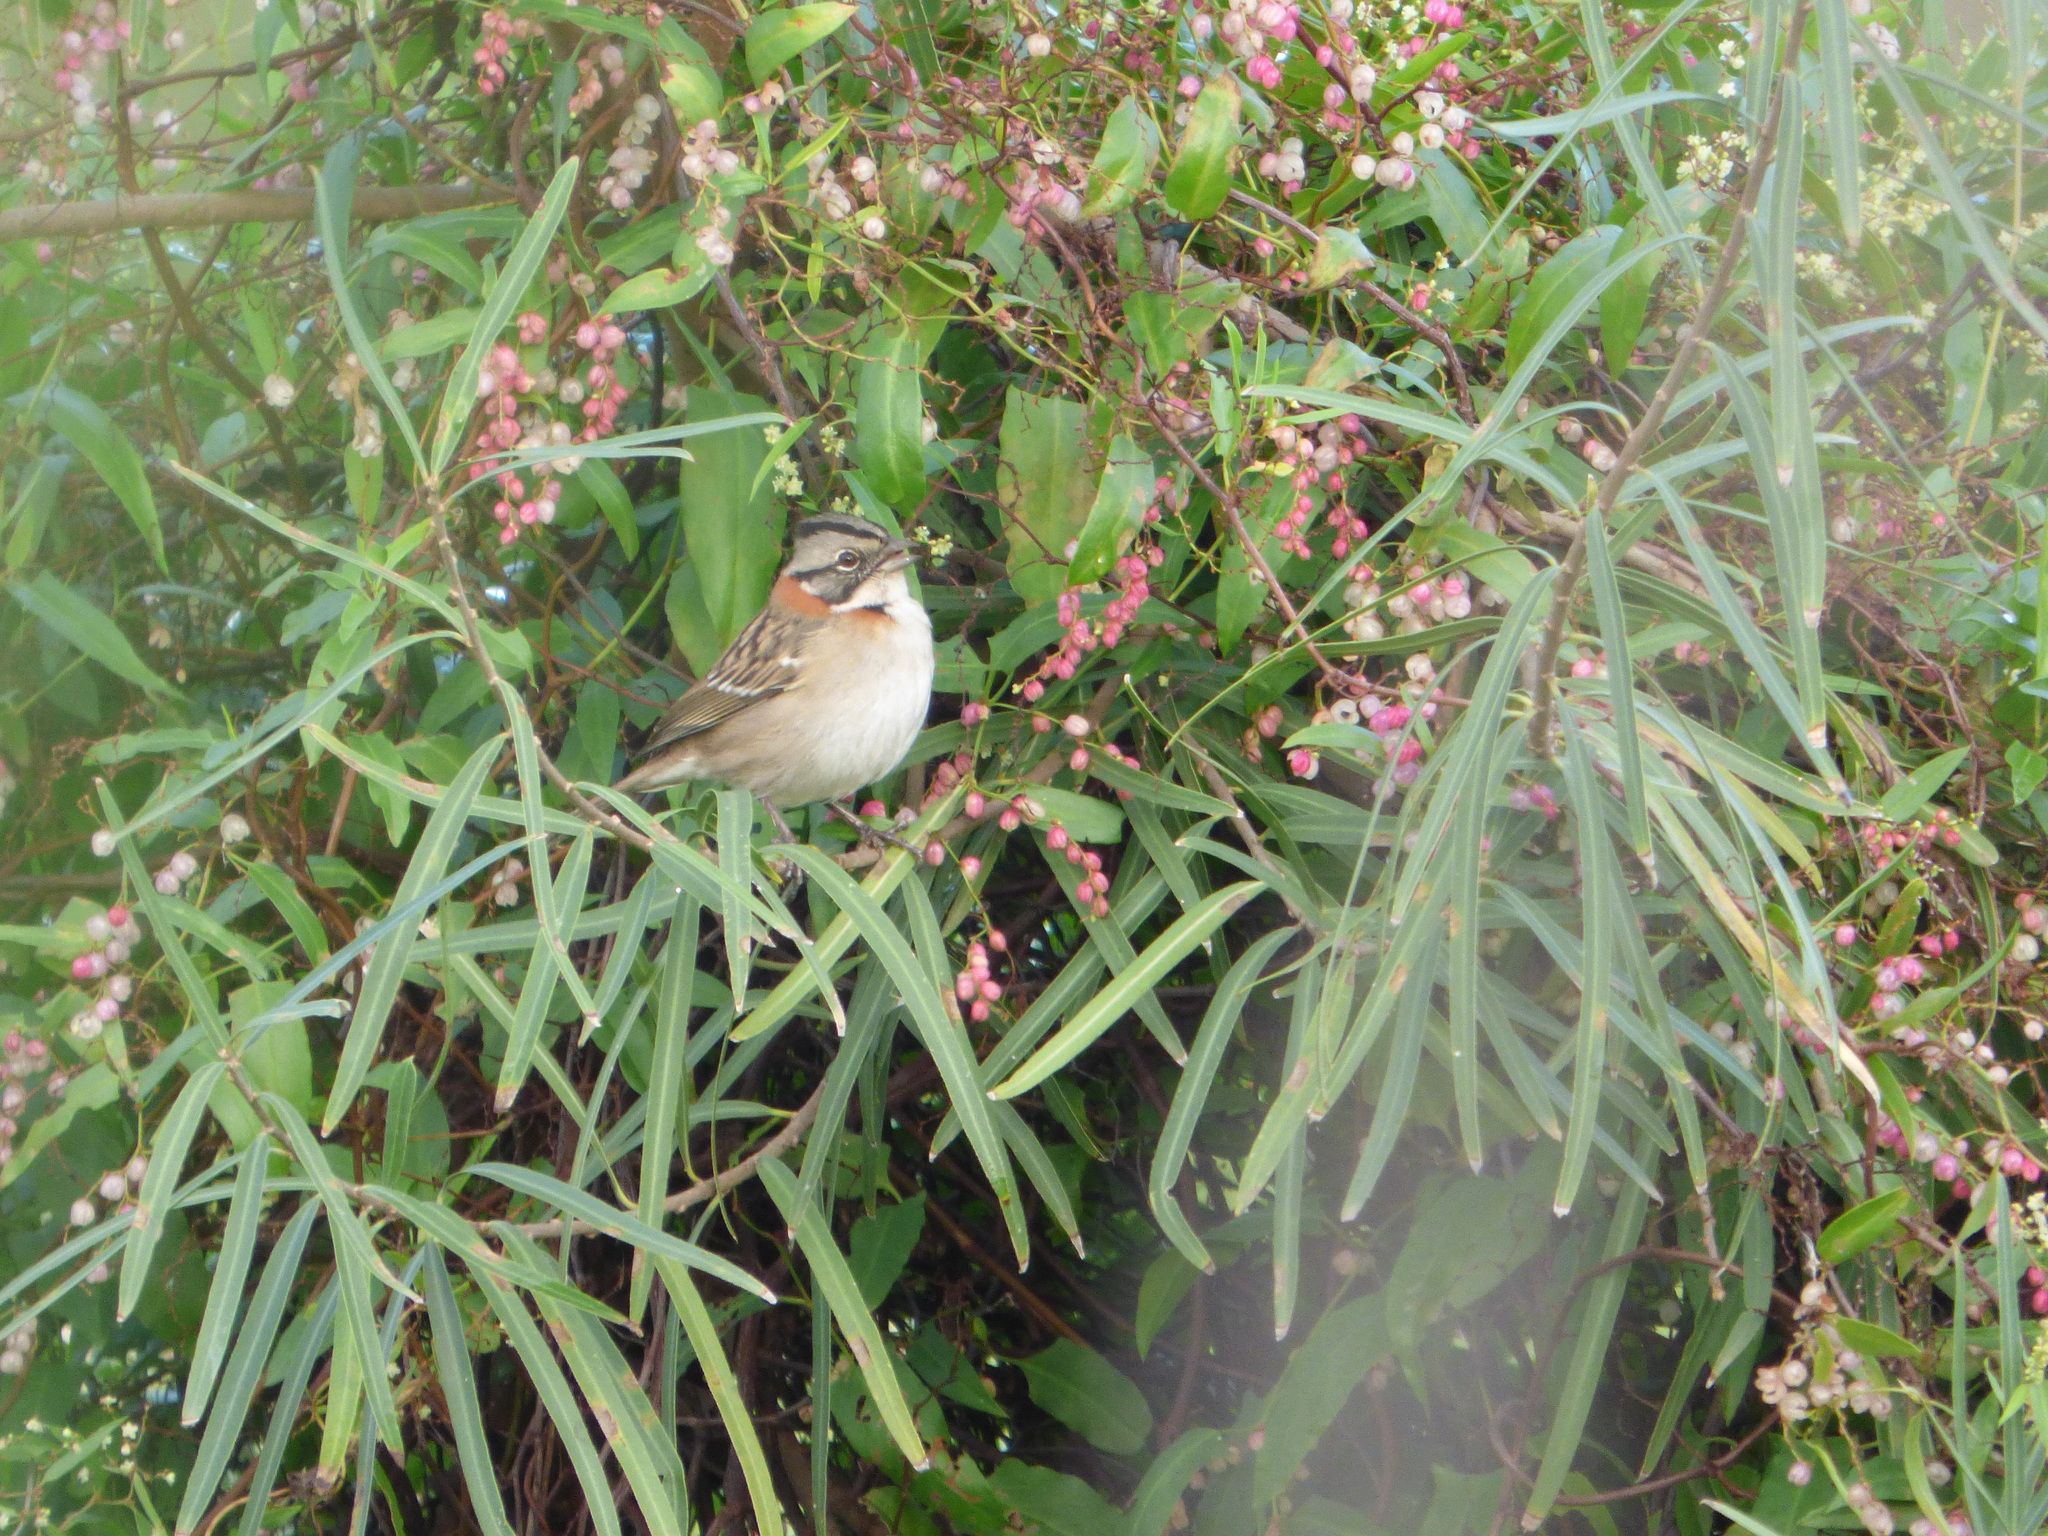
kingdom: Animalia
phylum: Chordata
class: Aves
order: Passeriformes
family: Passerellidae
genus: Zonotrichia
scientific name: Zonotrichia capensis
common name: Rufous-collared sparrow
